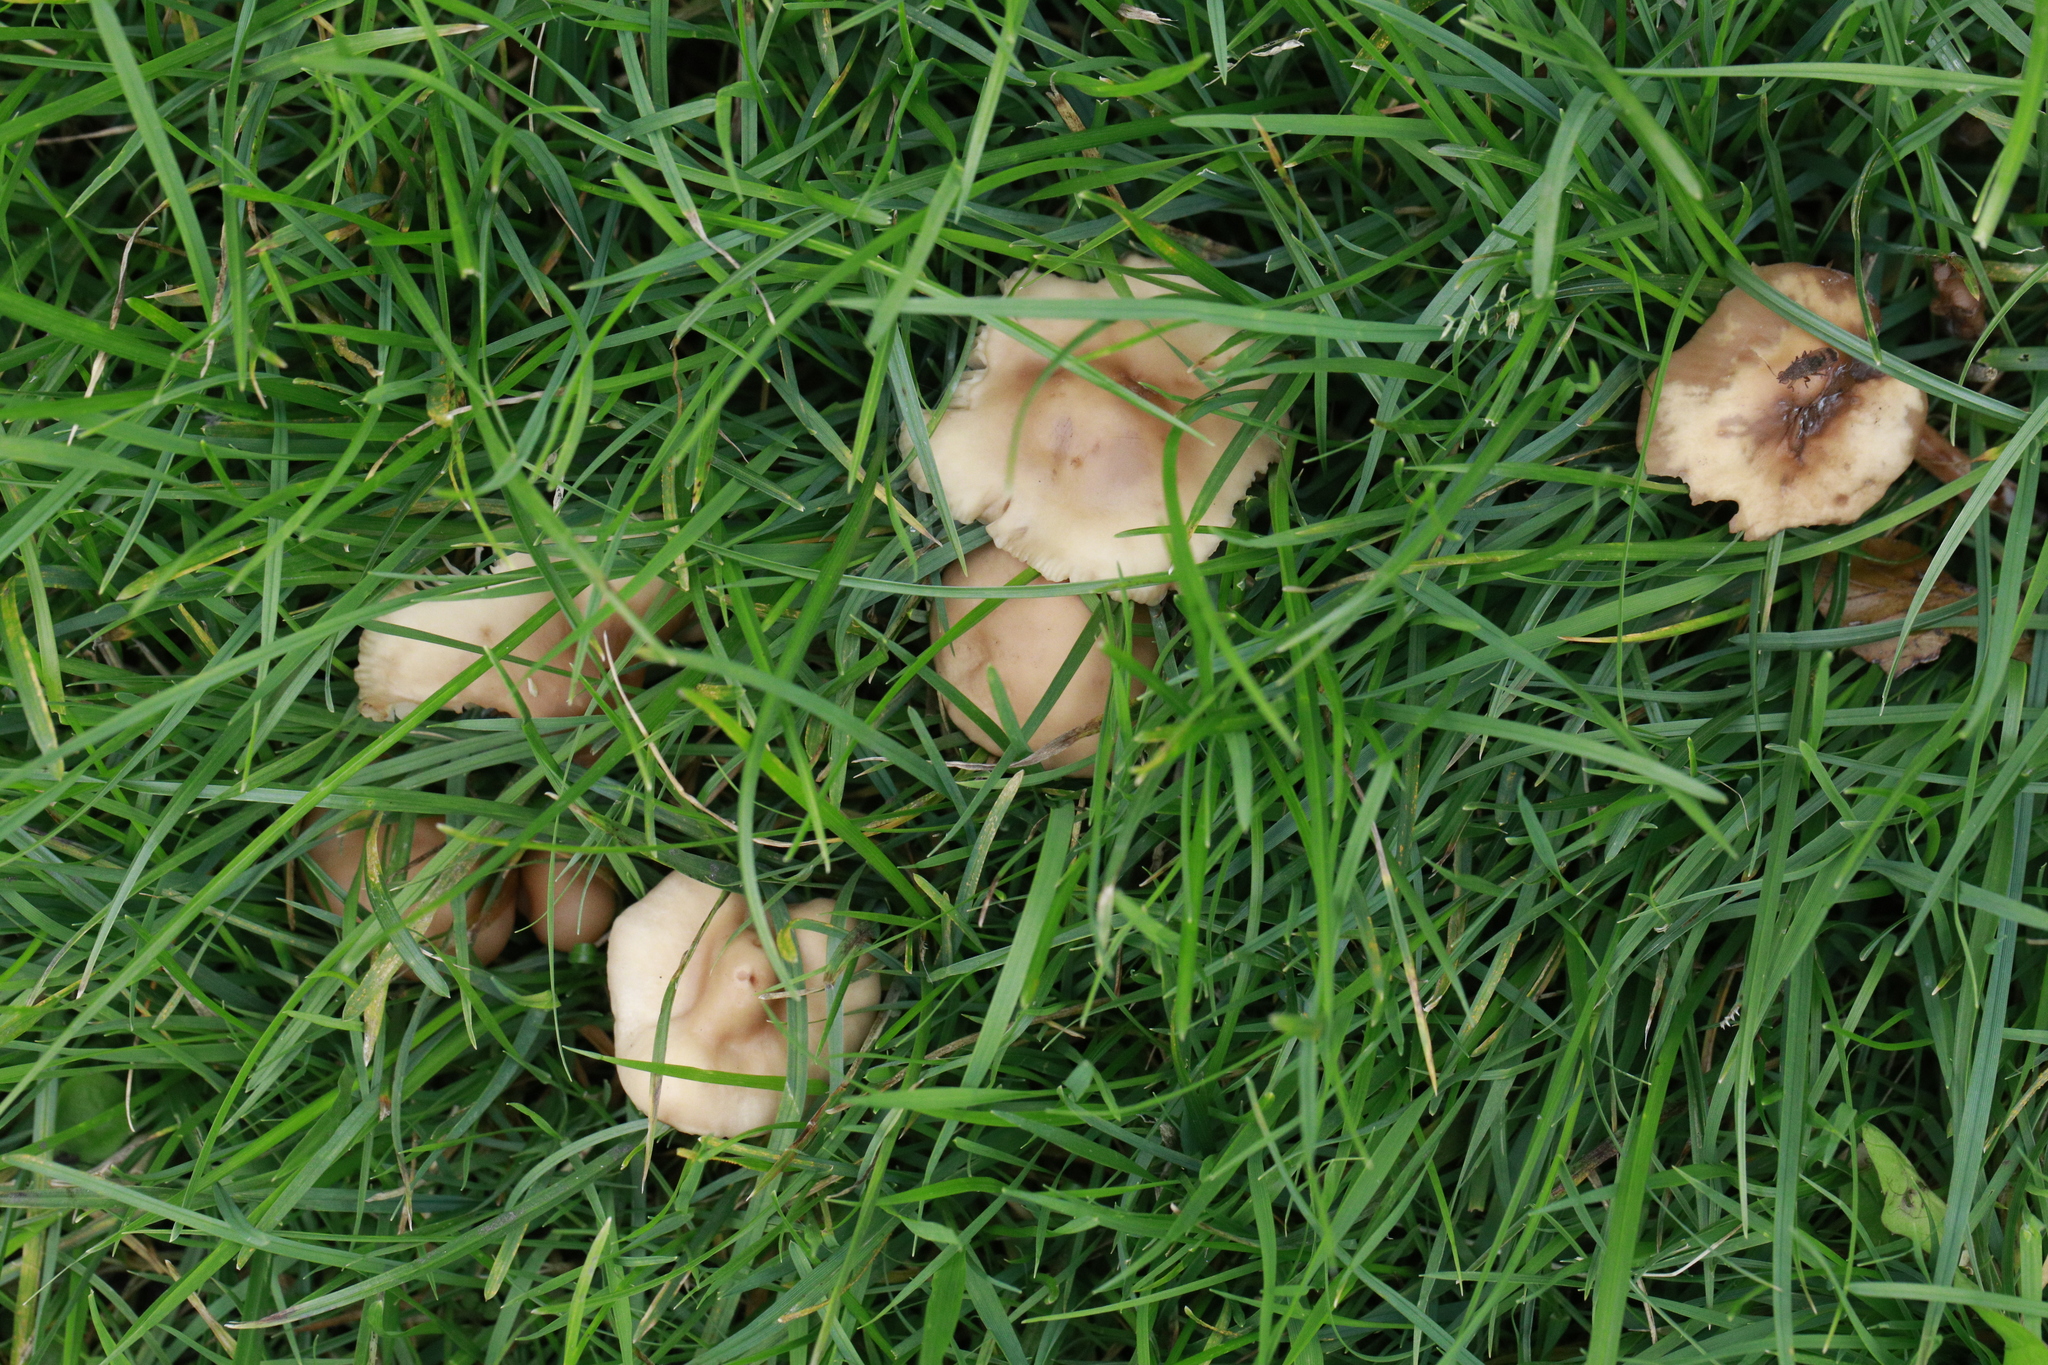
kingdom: Fungi
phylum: Basidiomycota
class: Agaricomycetes
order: Agaricales
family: Marasmiaceae
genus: Marasmius
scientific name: Marasmius oreades
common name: Fairy ring champignon
